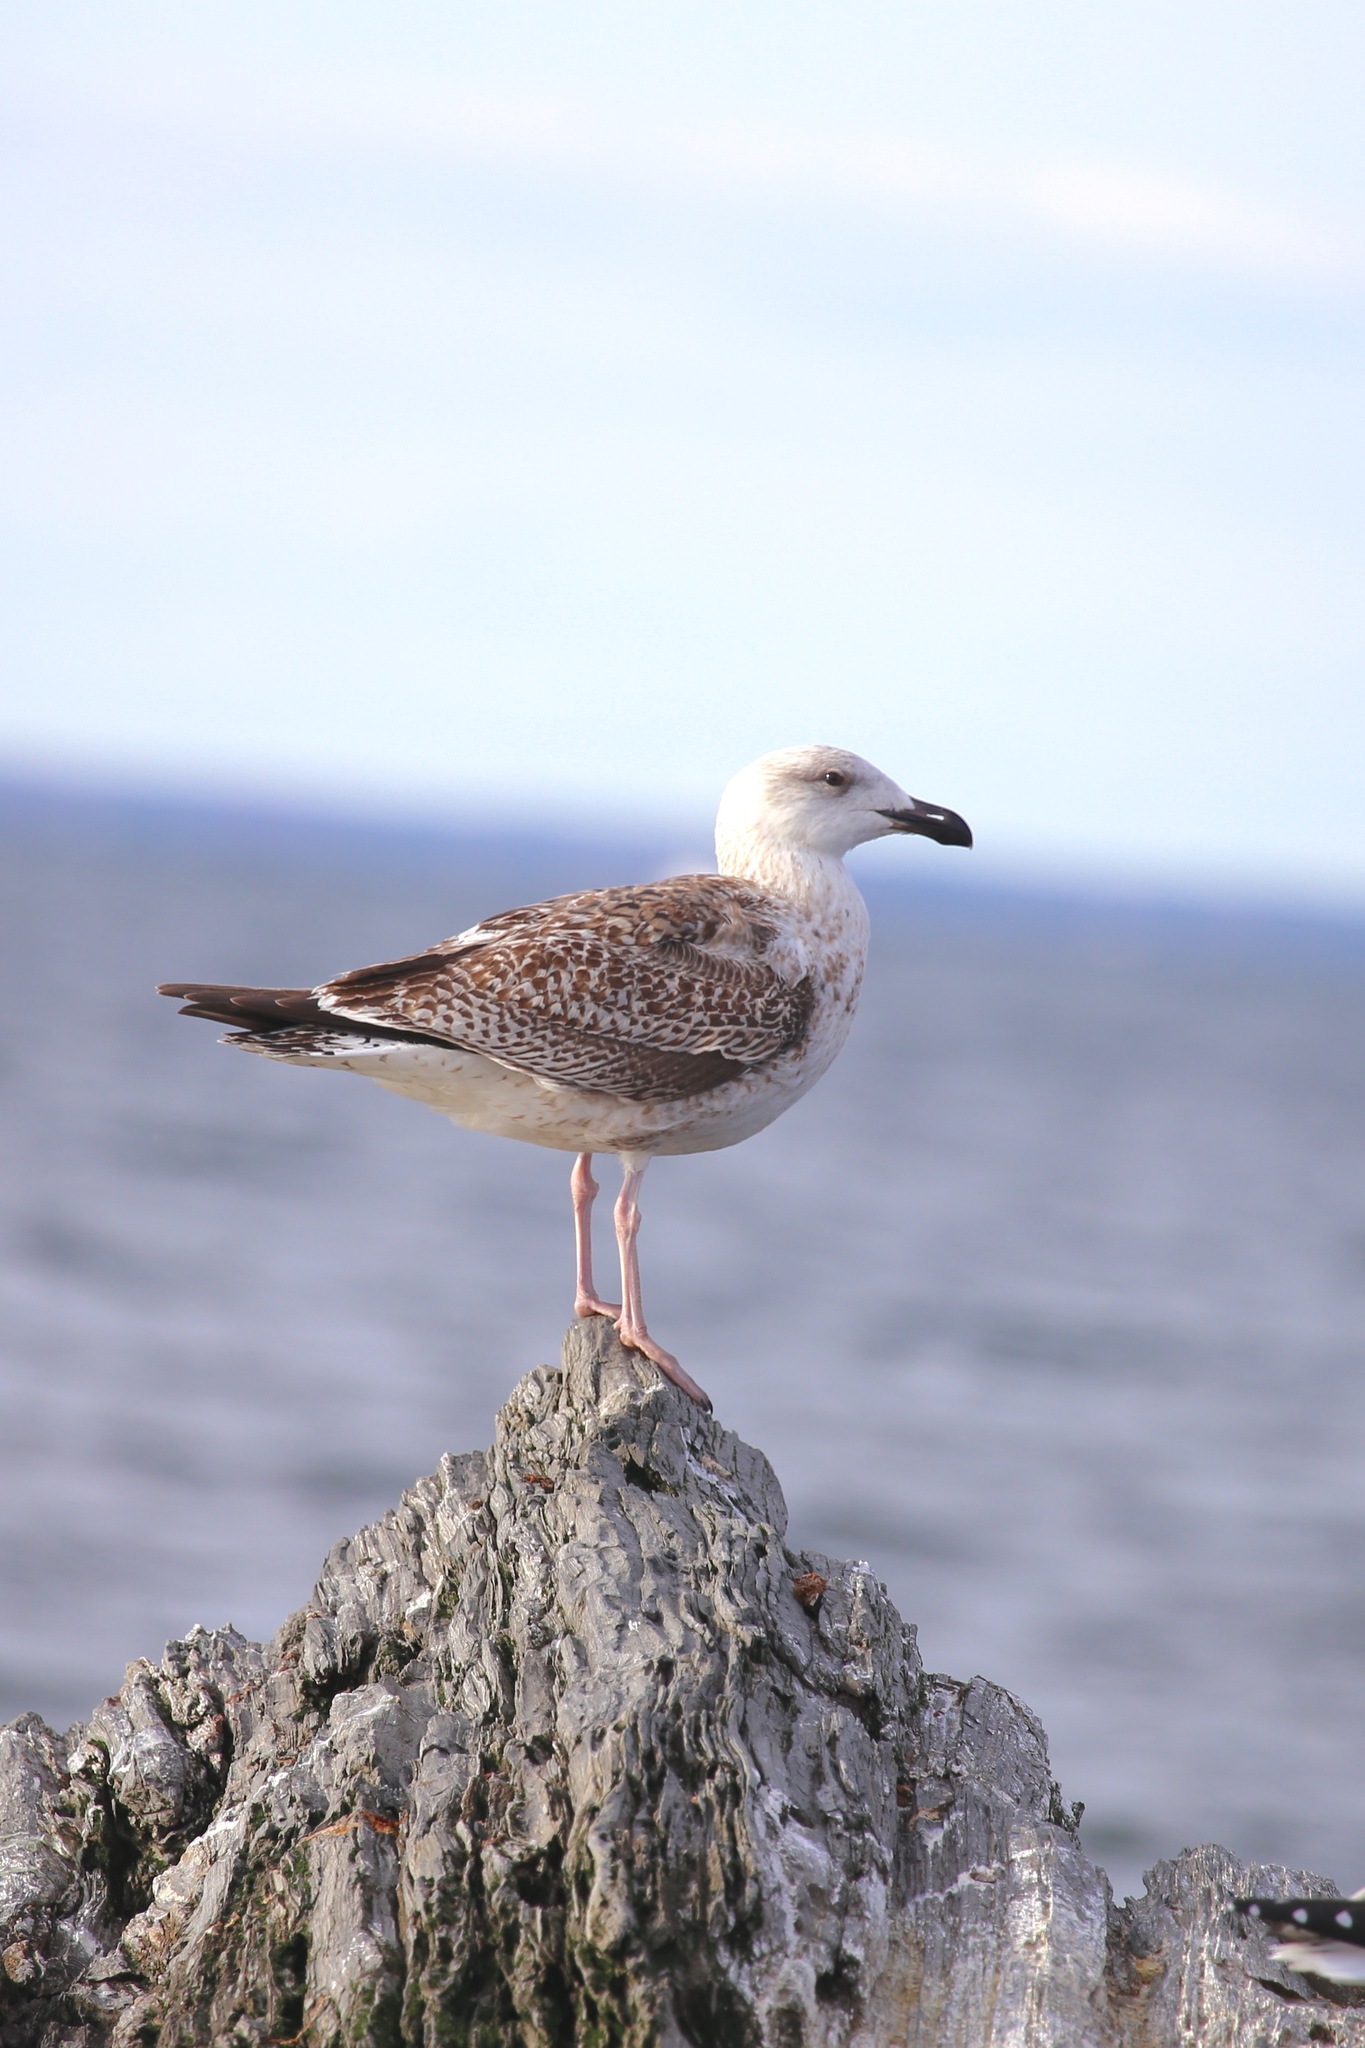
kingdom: Animalia
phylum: Chordata
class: Aves
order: Charadriiformes
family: Laridae
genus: Larus
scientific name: Larus marinus
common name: Great black-backed gull
